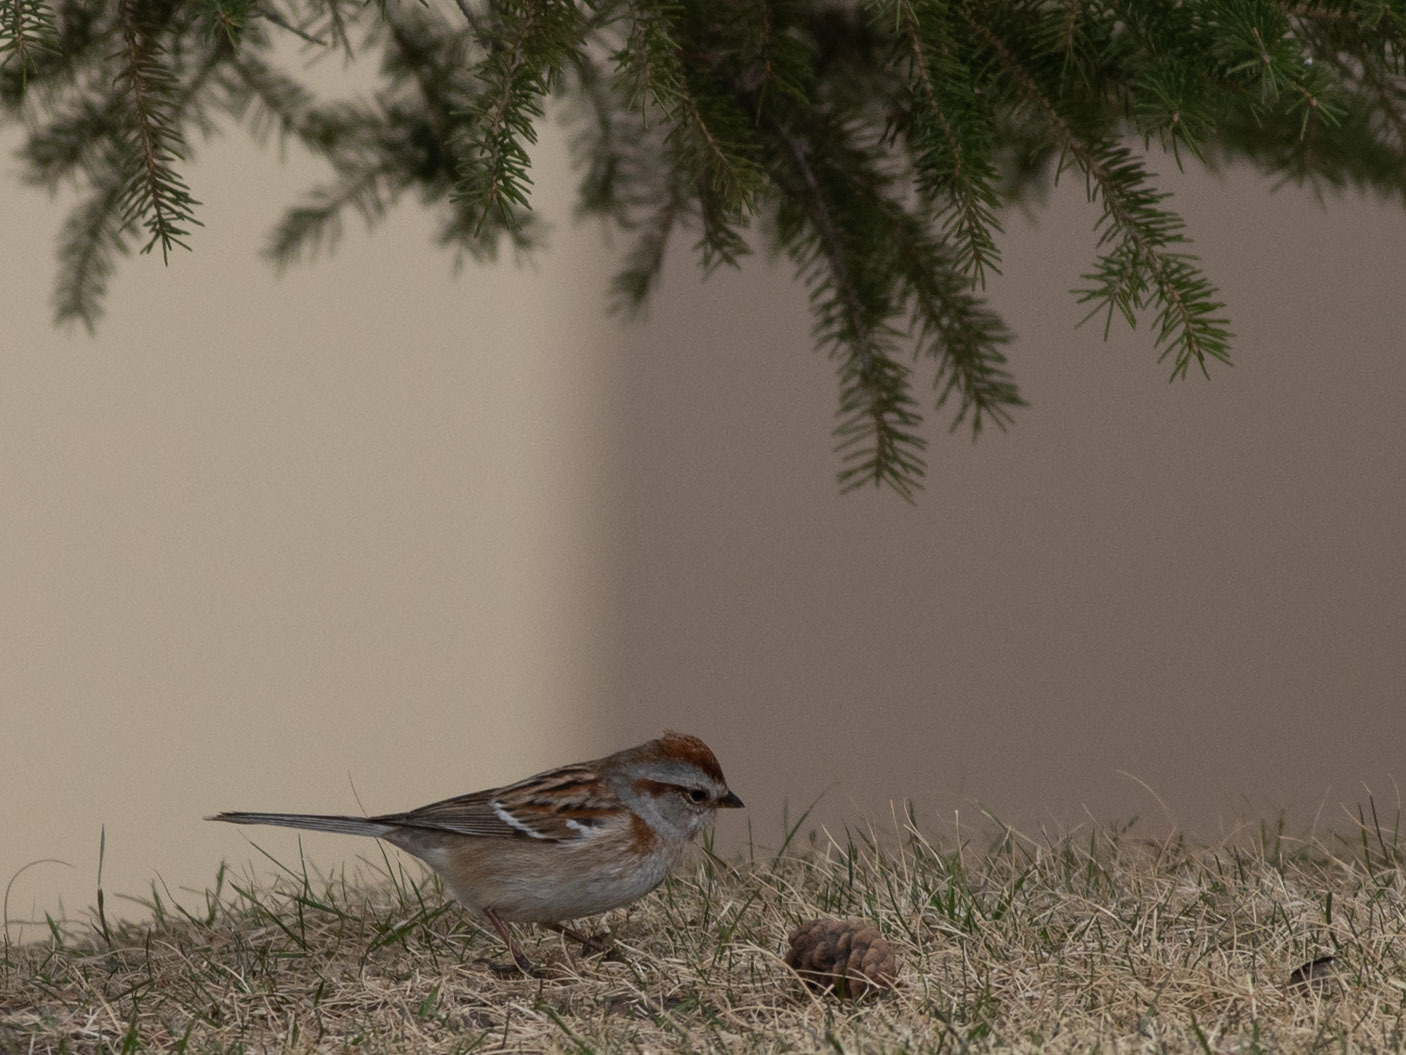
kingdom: Animalia
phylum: Chordata
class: Aves
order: Passeriformes
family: Passerellidae
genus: Spizelloides
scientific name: Spizelloides arborea
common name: American tree sparrow
